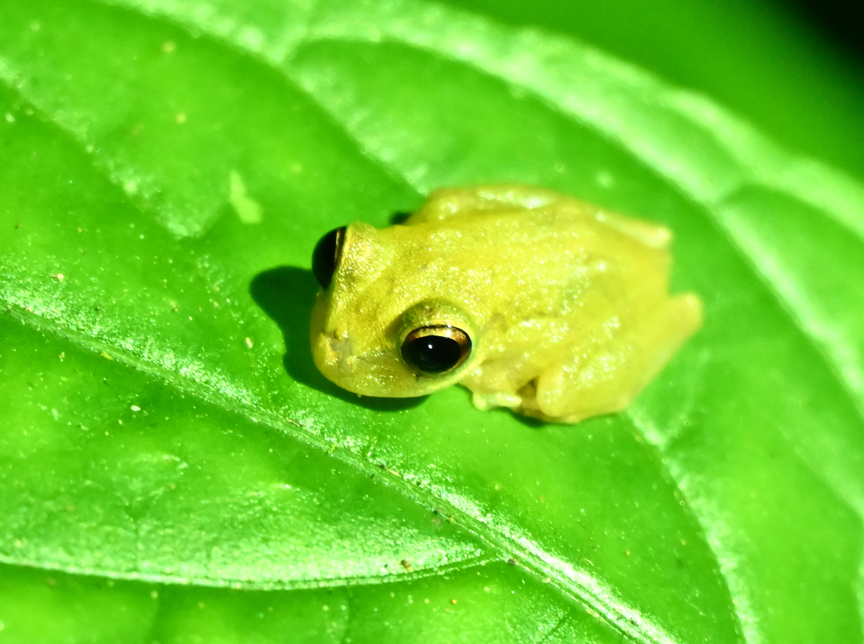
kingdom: Animalia
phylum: Chordata
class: Amphibia
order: Anura
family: Hemiphractidae
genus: Flectonotus
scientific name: Flectonotus fitzgeraldi
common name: Marsupial frog
